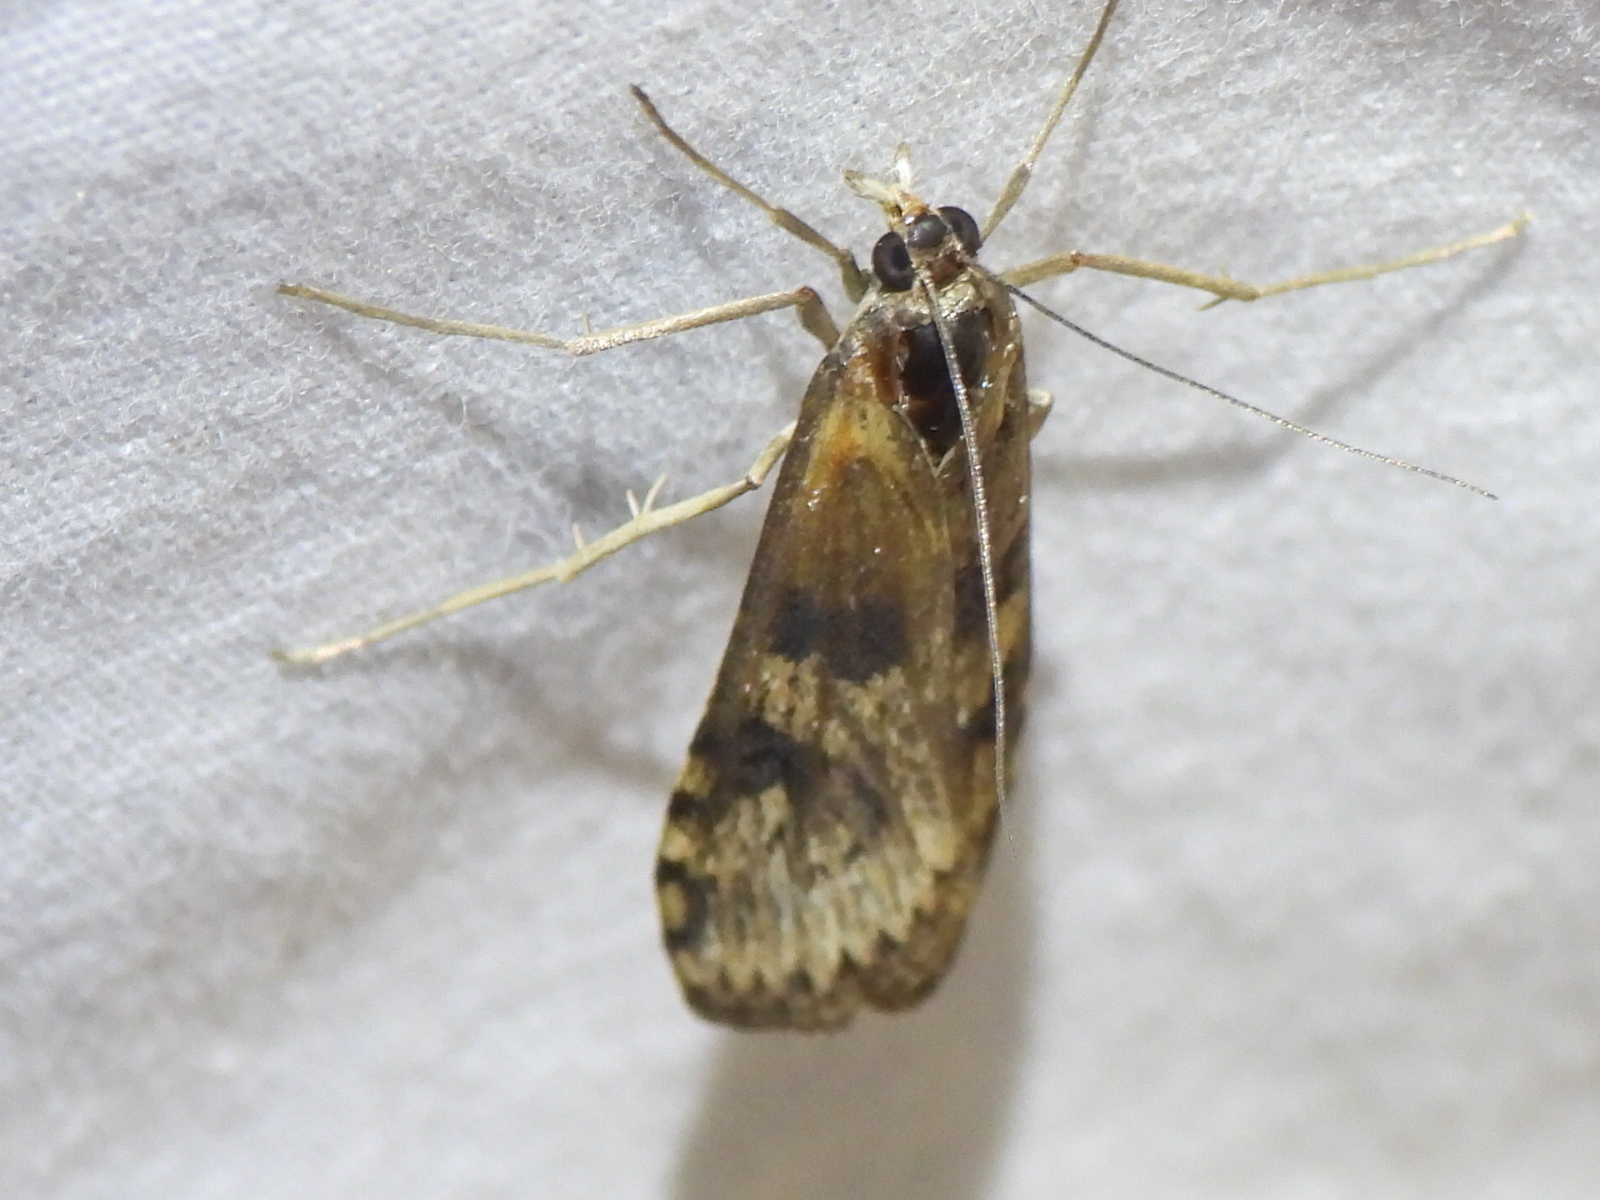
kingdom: Animalia
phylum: Arthropoda
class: Insecta
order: Lepidoptera
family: Crambidae
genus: Nomophila
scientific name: Nomophila nearctica
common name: American rush veneer
